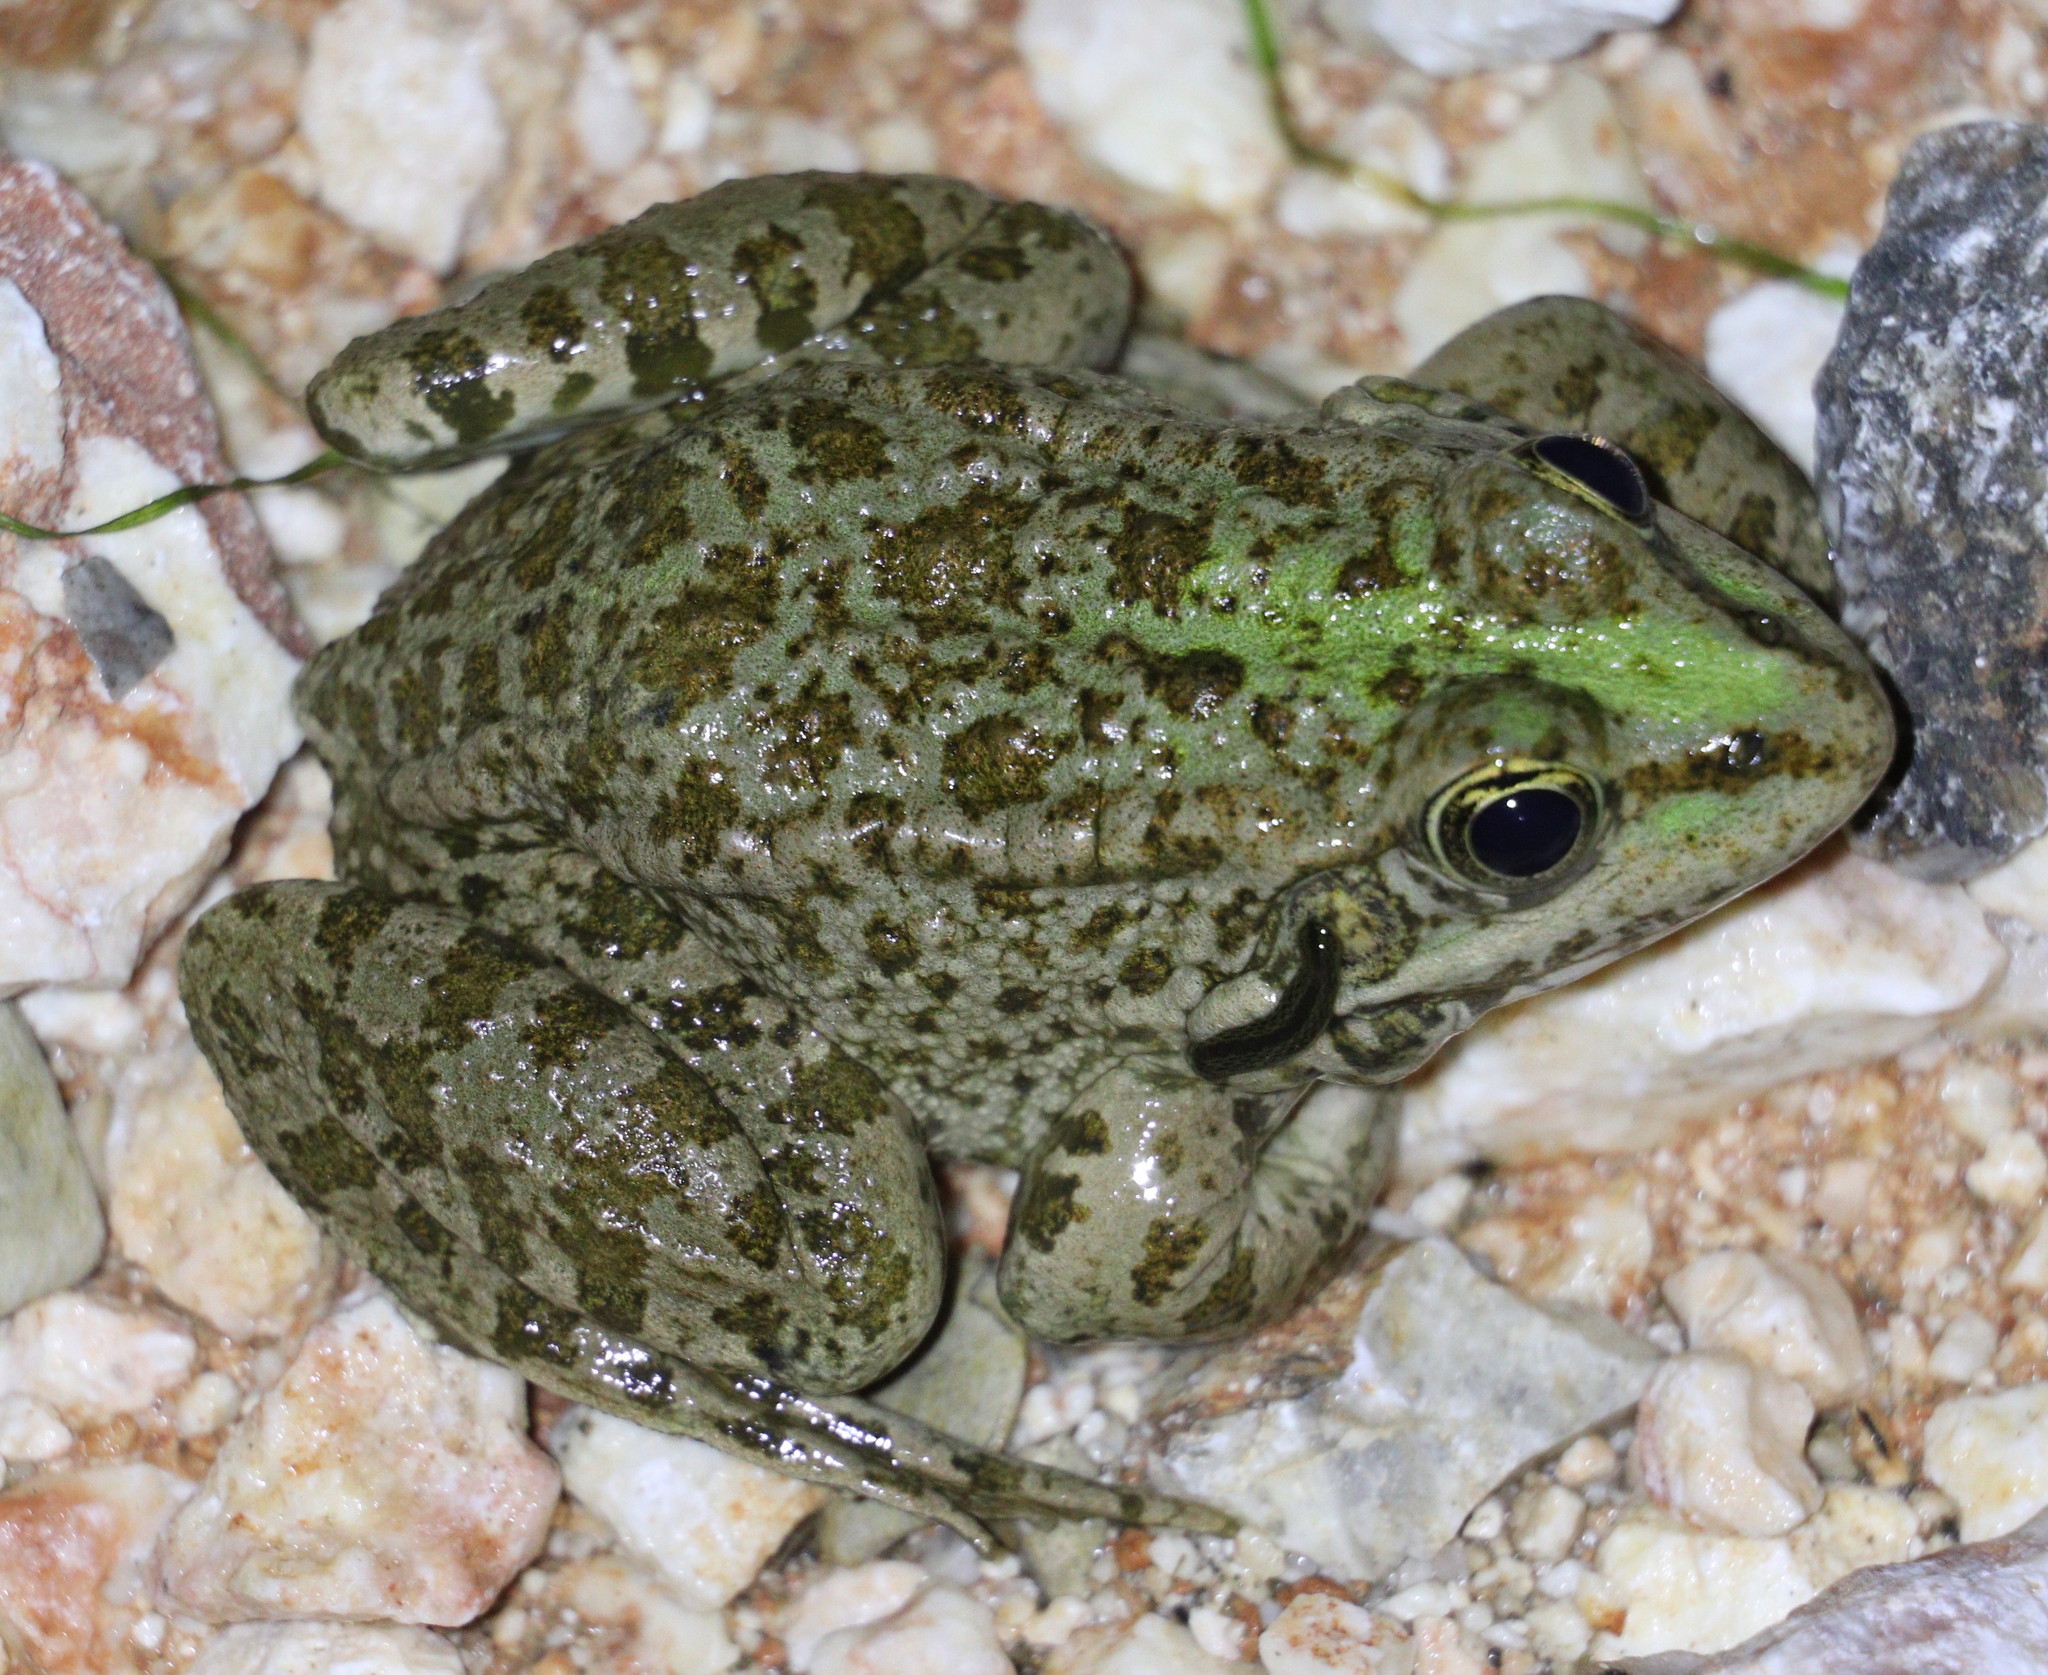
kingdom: Animalia
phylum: Chordata
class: Amphibia
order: Anura
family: Ranidae
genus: Pelophylax
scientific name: Pelophylax ridibundus
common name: Marsh frog
